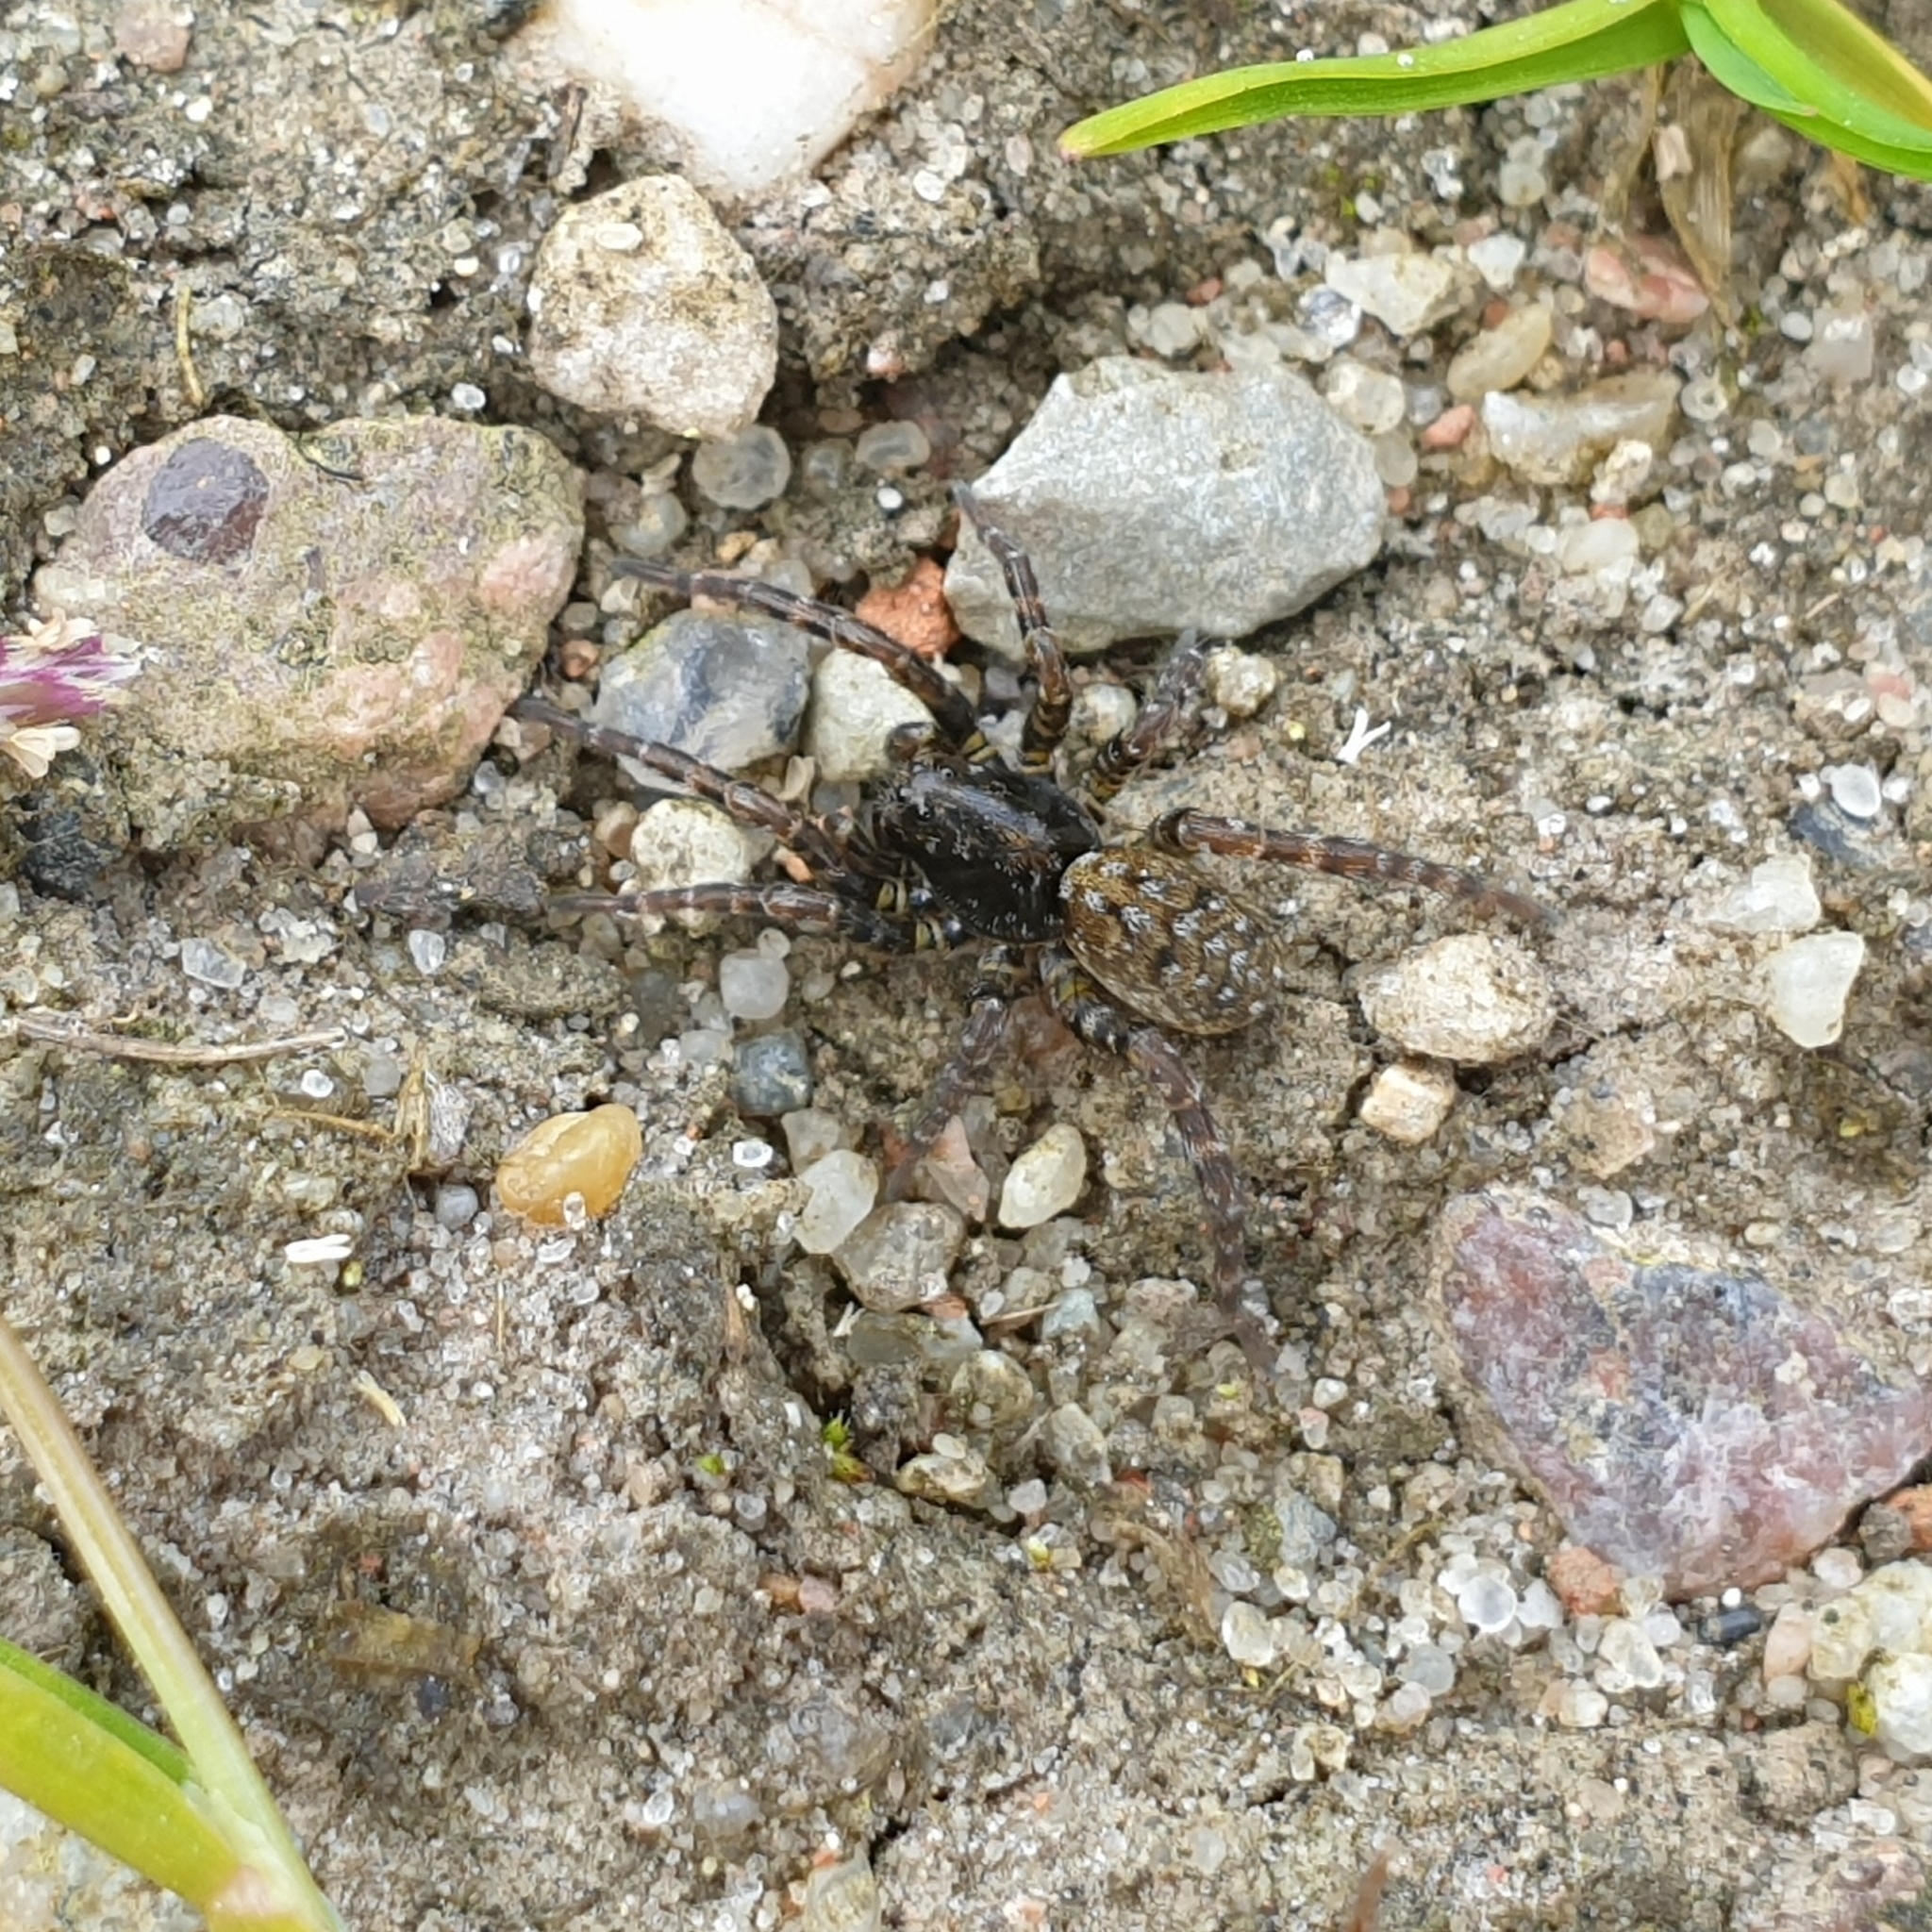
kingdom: Animalia
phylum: Arthropoda
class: Arachnida
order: Araneae
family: Lycosidae
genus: Arctosa
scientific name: Arctosa leopardus
